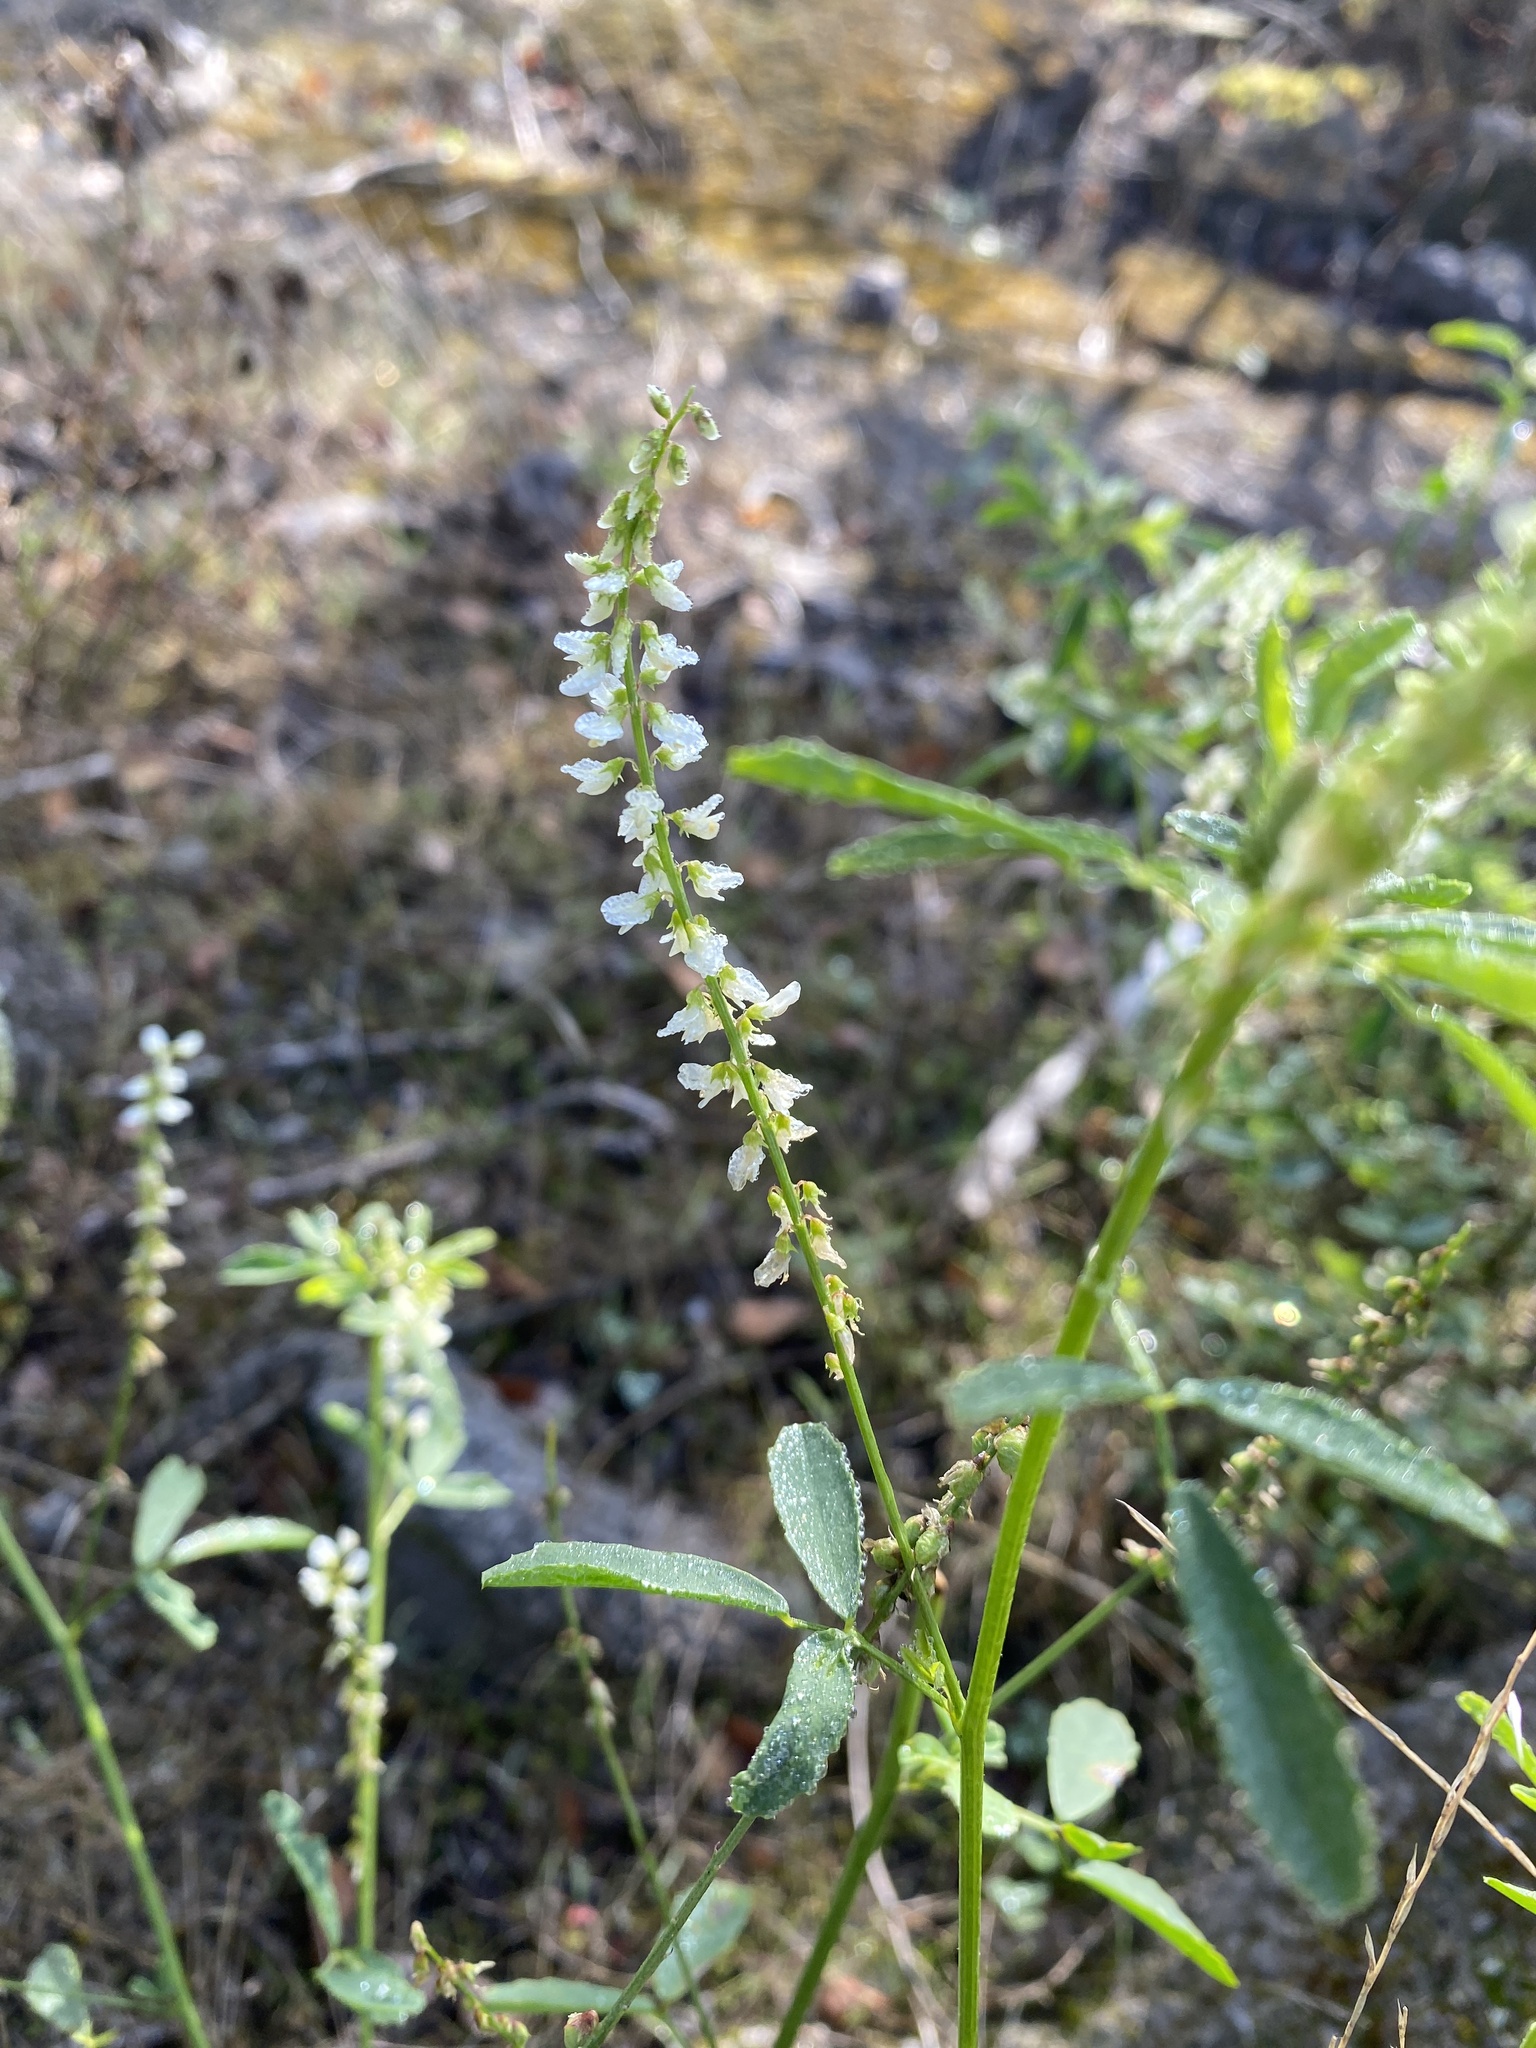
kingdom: Plantae
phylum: Tracheophyta
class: Magnoliopsida
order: Fabales
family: Fabaceae
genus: Melilotus
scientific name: Melilotus albus
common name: White melilot
